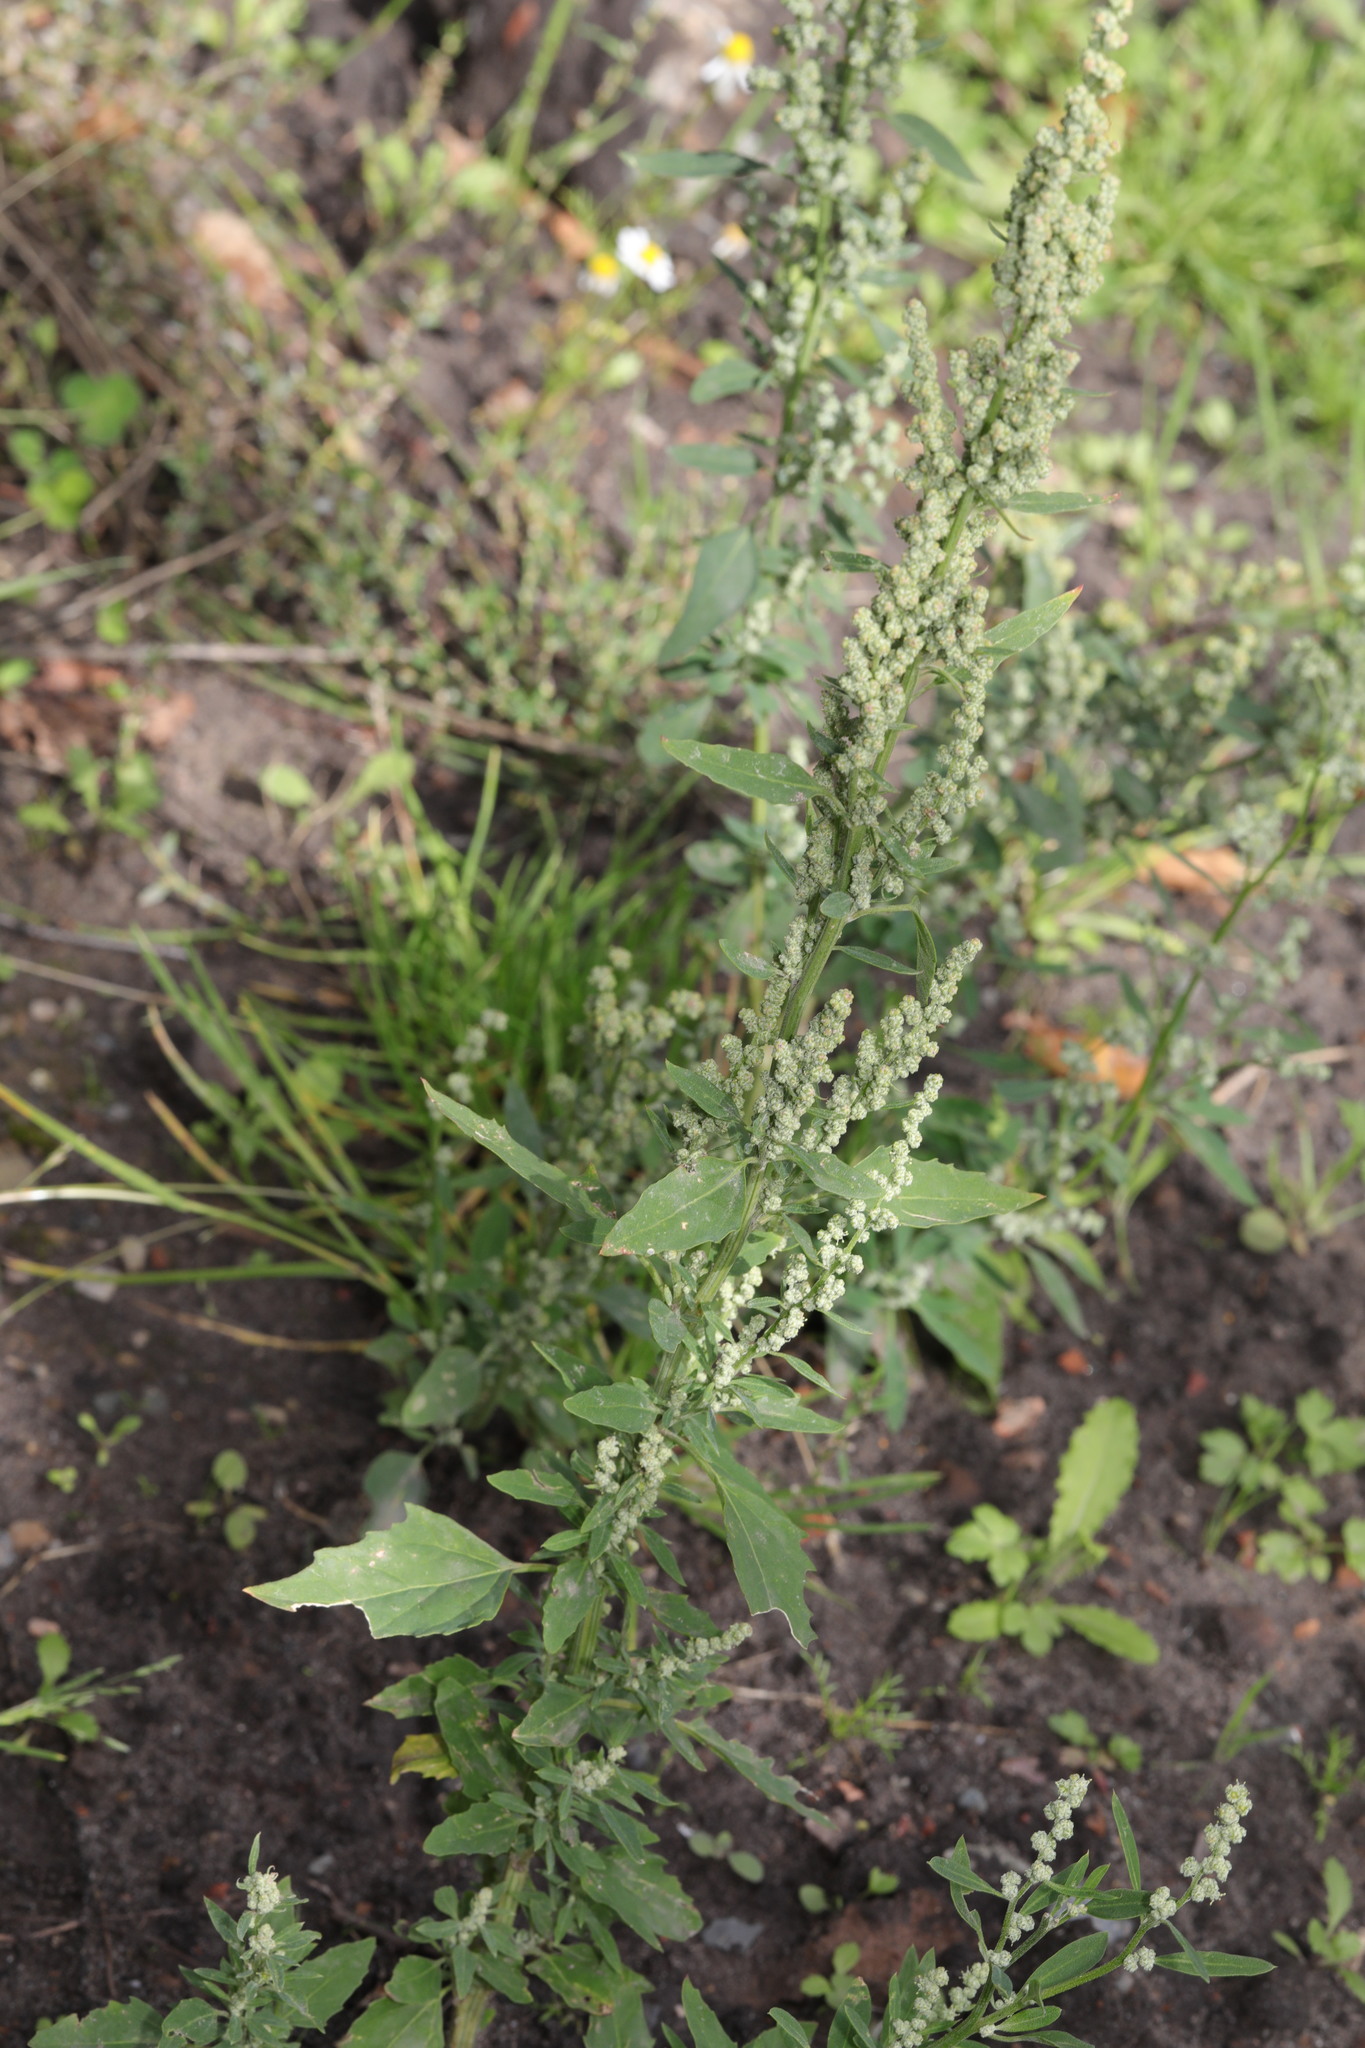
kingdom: Plantae
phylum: Tracheophyta
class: Magnoliopsida
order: Caryophyllales
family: Amaranthaceae
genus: Chenopodium
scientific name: Chenopodium album
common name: Fat-hen
